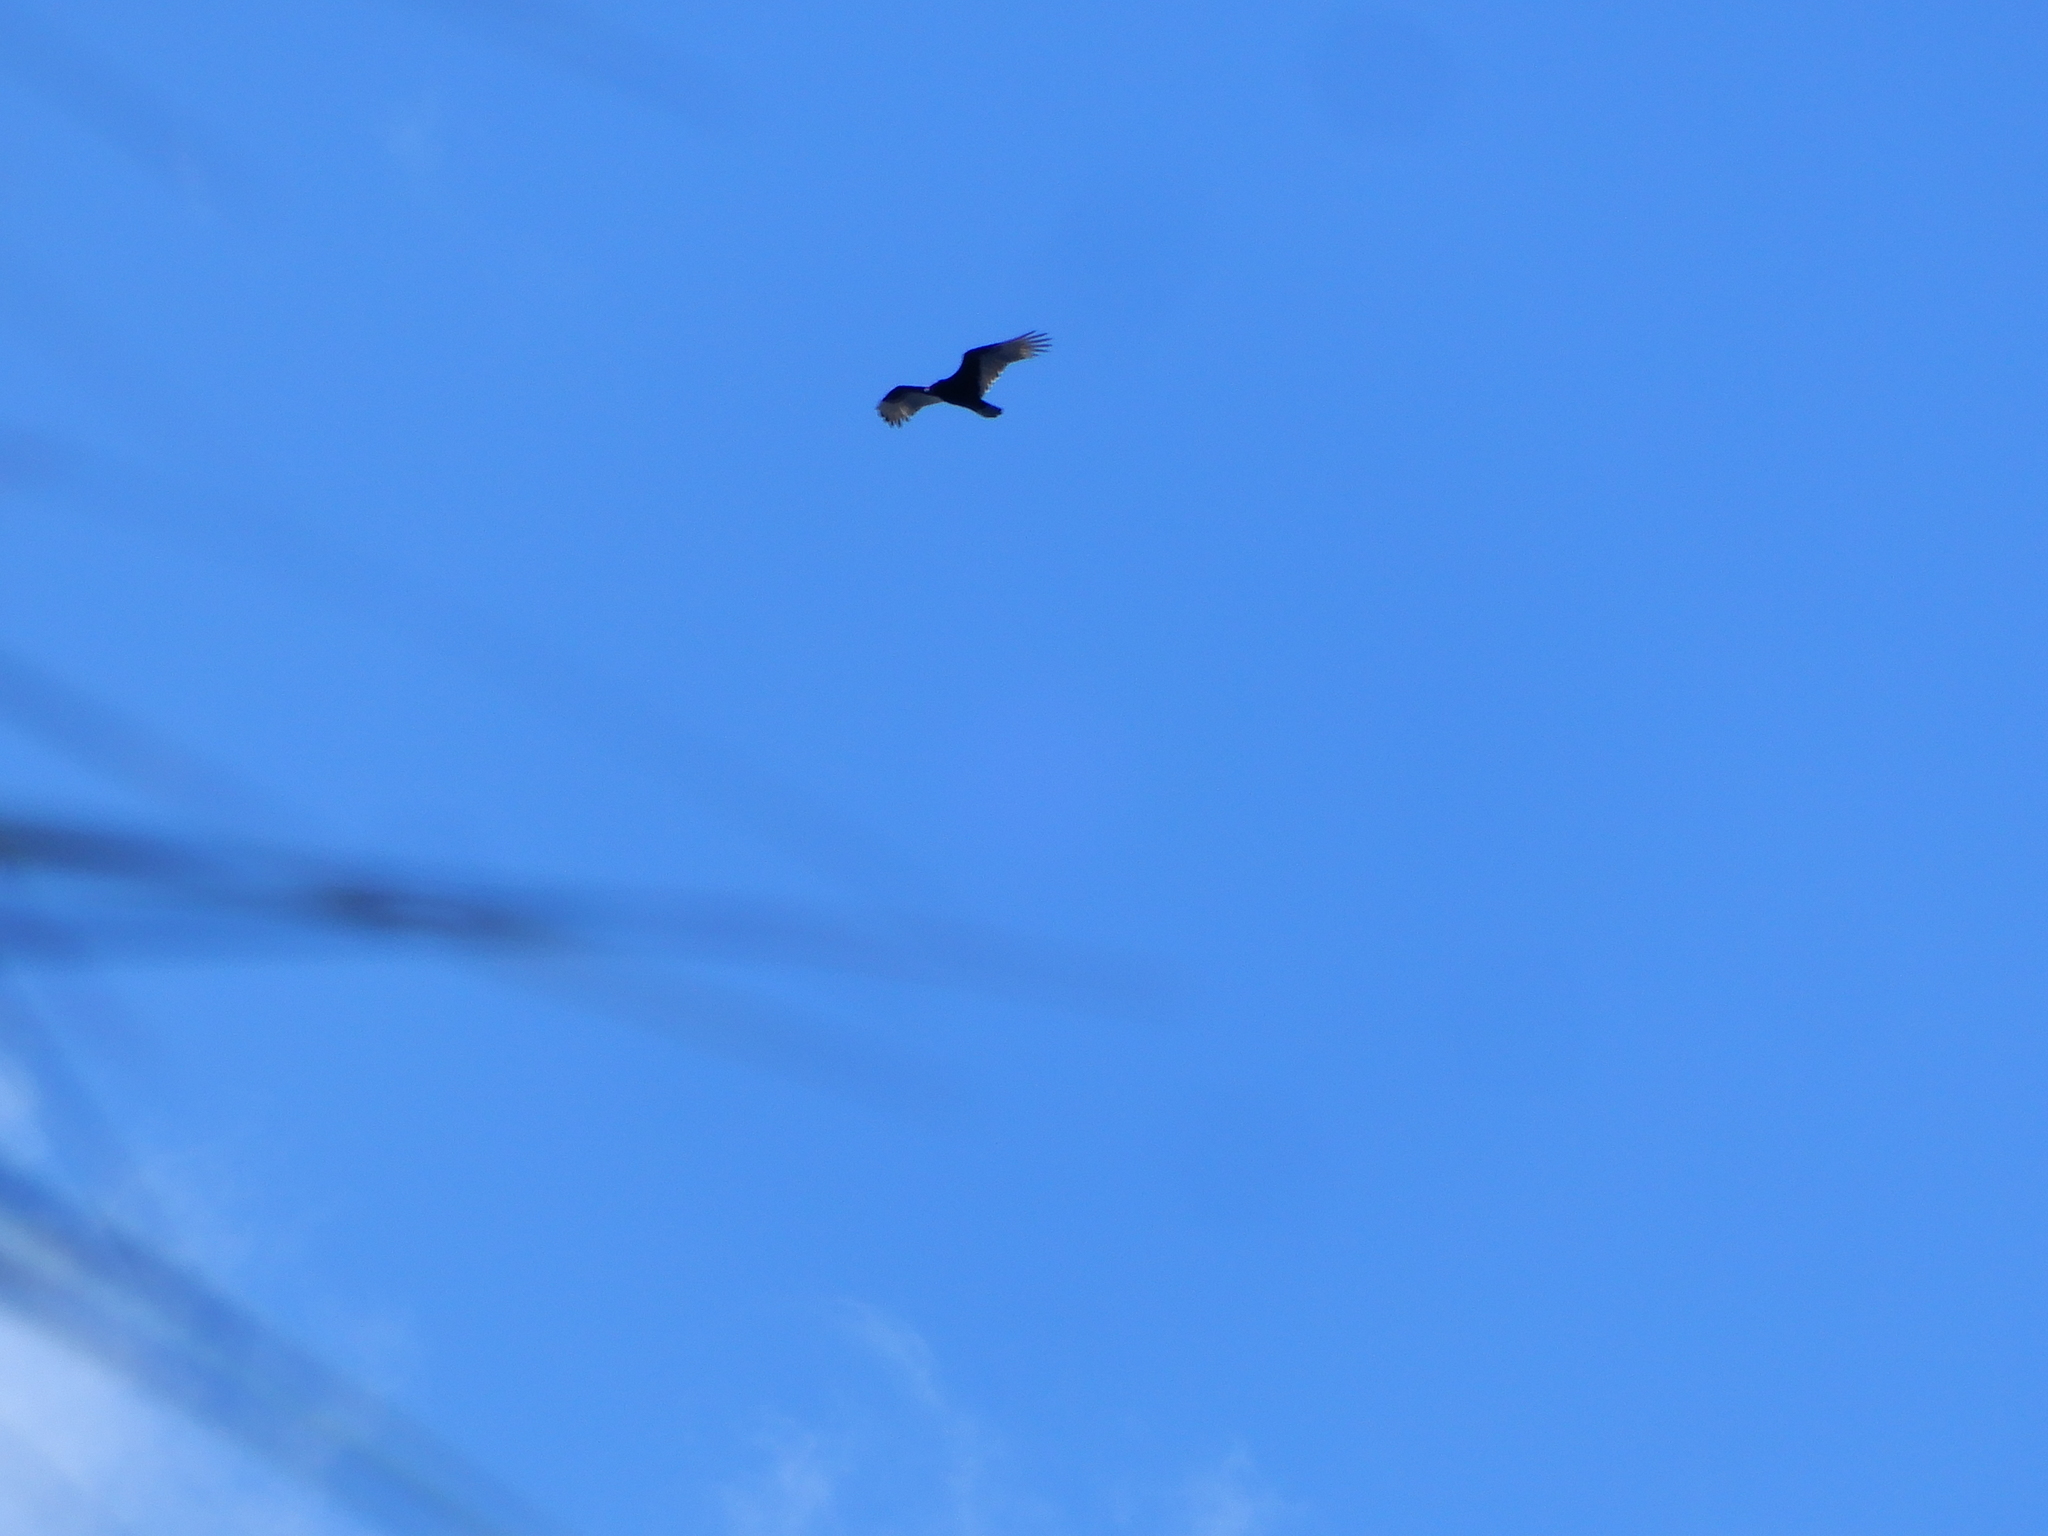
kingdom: Animalia
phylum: Chordata
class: Aves
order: Accipitriformes
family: Cathartidae
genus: Cathartes
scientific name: Cathartes aura
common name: Turkey vulture
